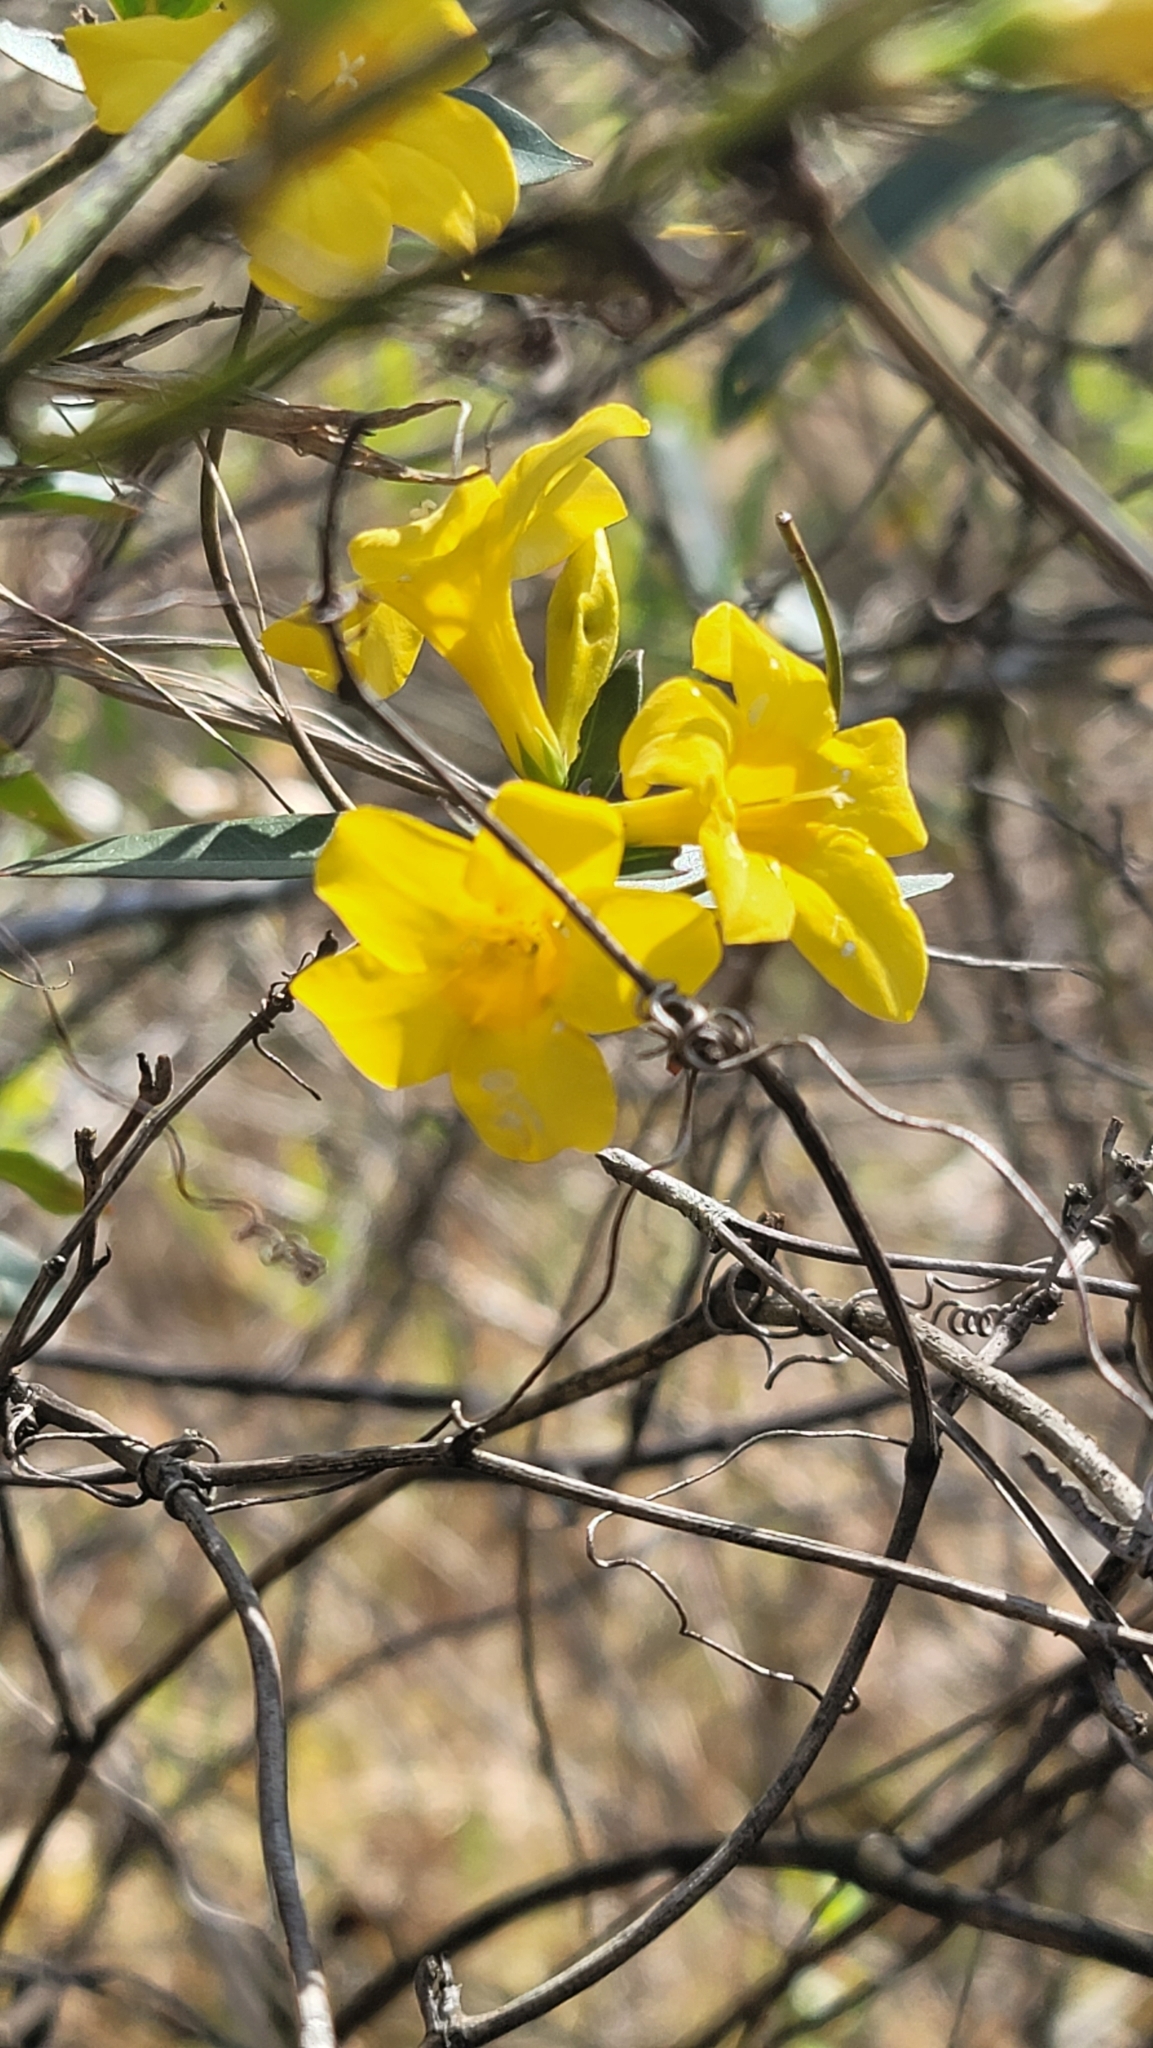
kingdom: Plantae
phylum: Tracheophyta
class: Magnoliopsida
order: Gentianales
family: Gelsemiaceae
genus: Gelsemium
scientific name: Gelsemium sempervirens
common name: Carolina-jasmine
